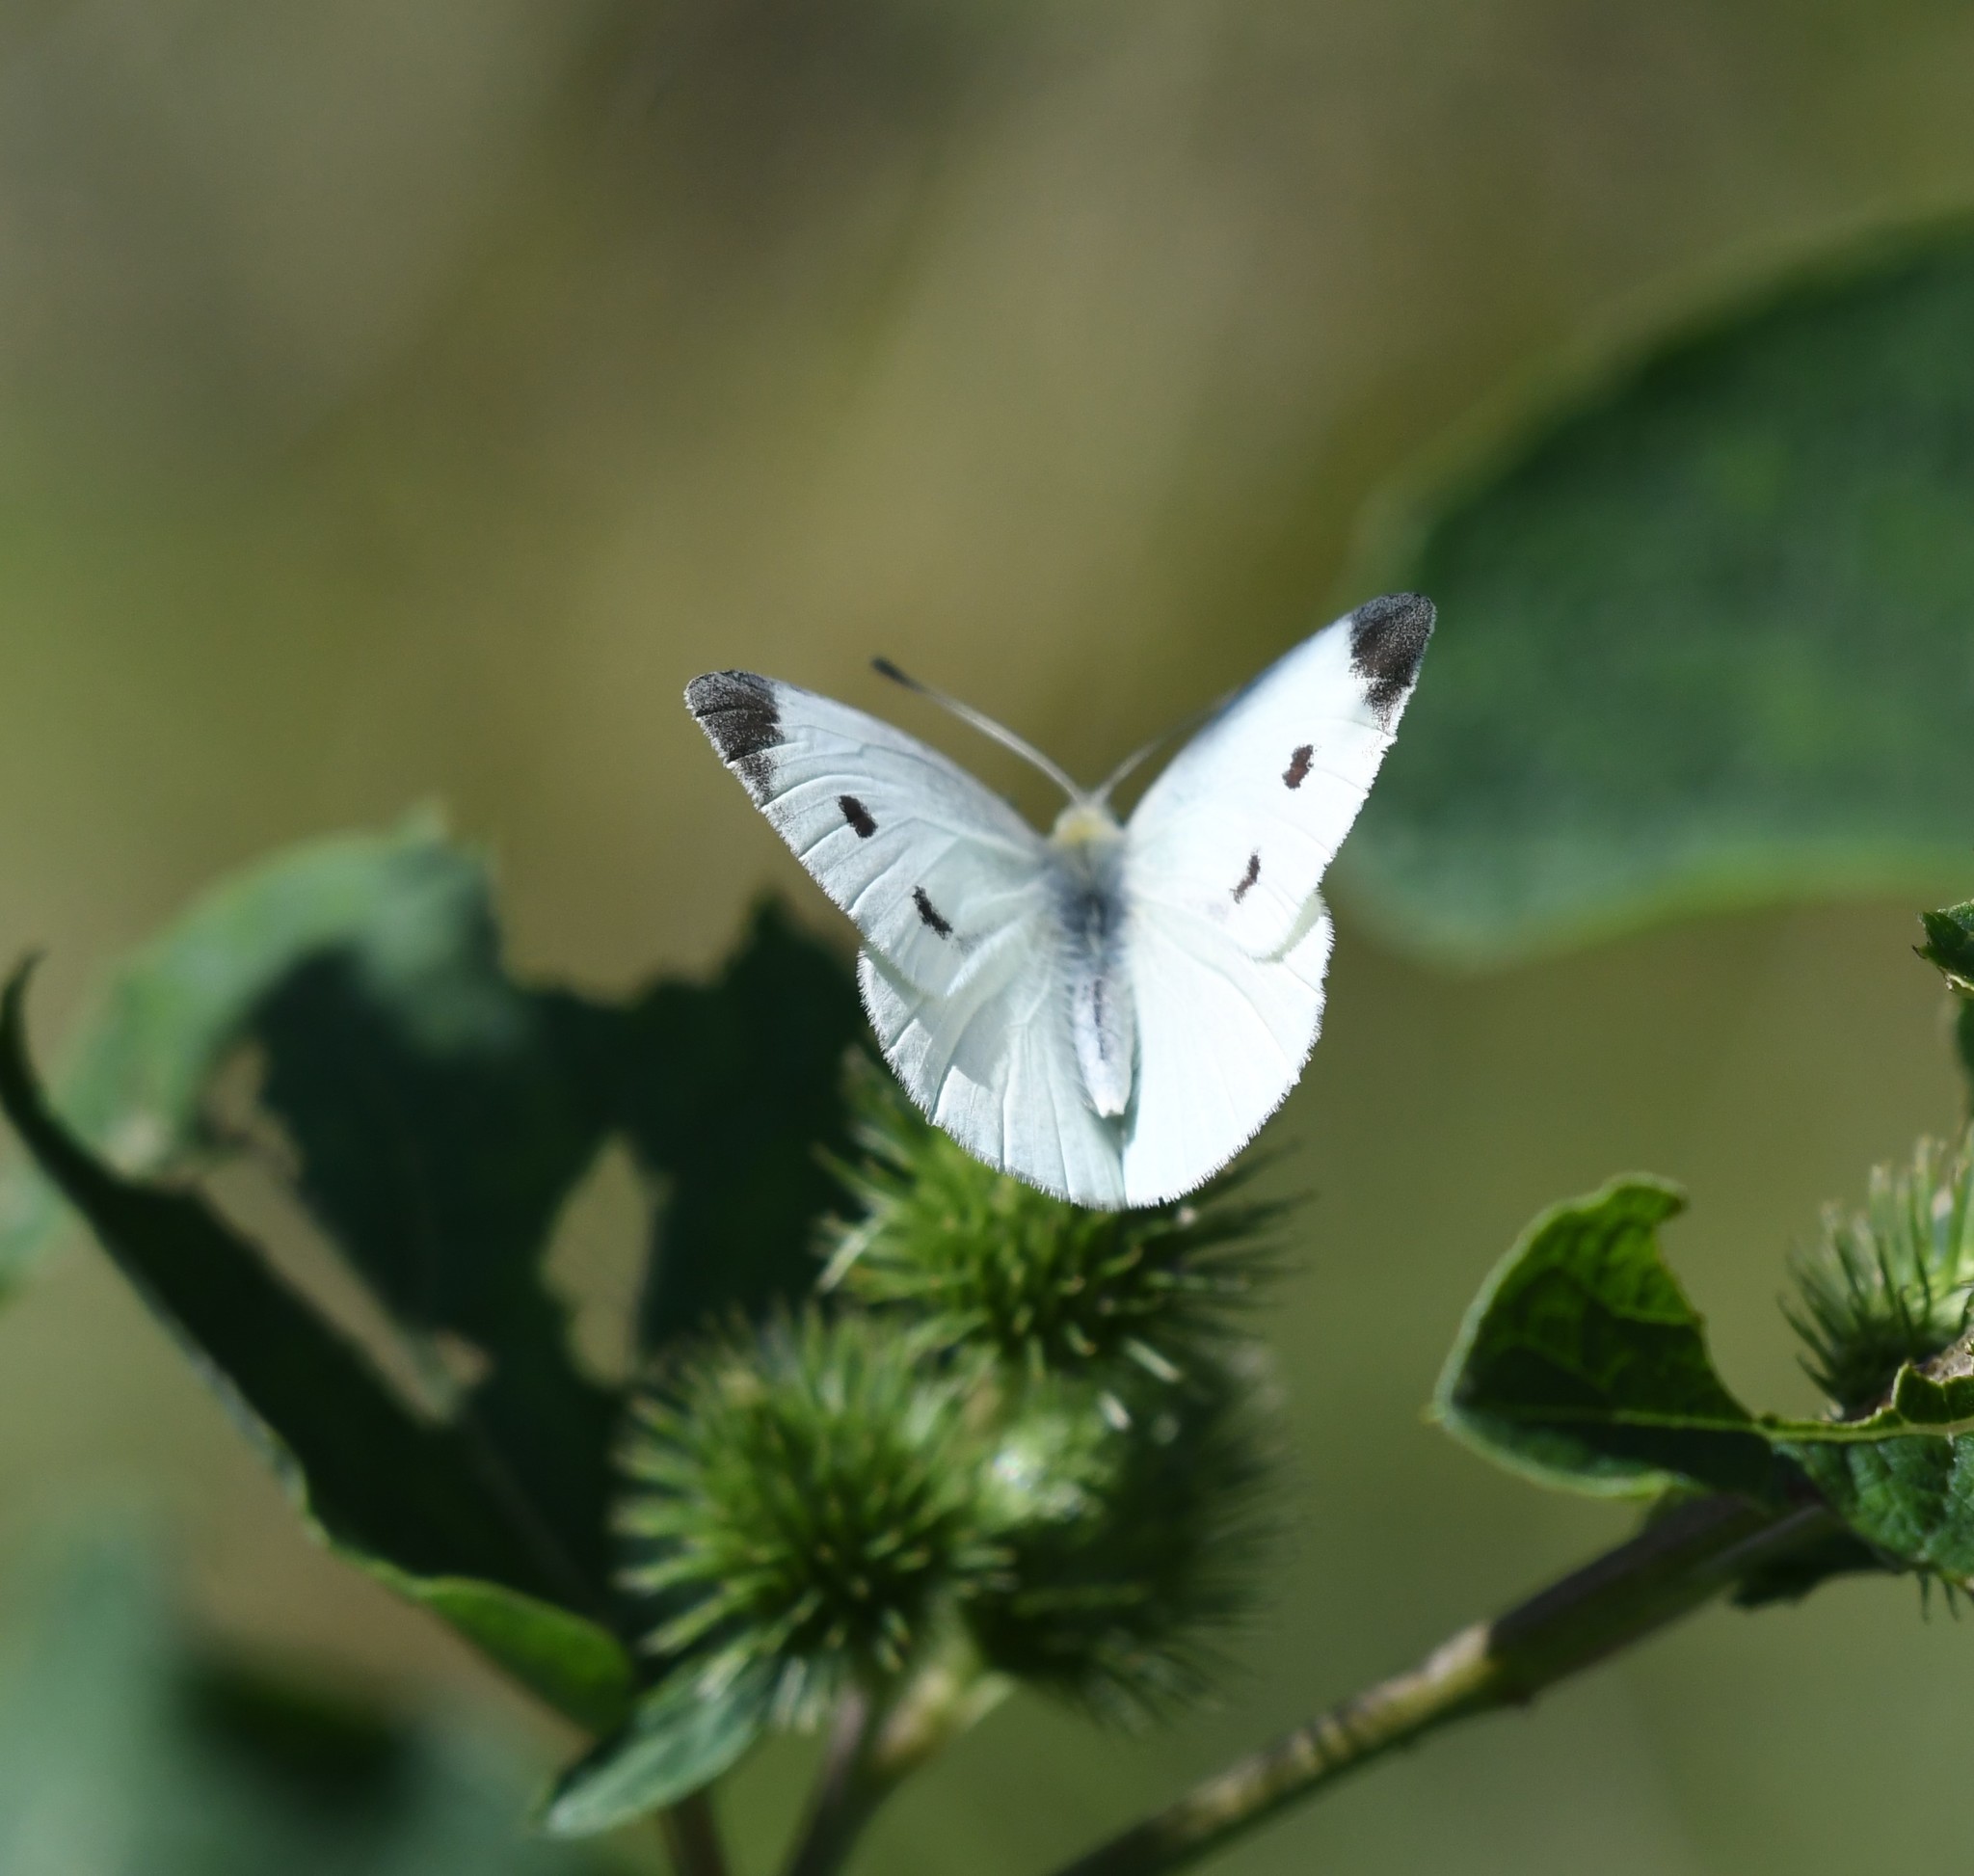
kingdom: Animalia
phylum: Arthropoda
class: Insecta
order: Lepidoptera
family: Pieridae
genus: Pieris
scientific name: Pieris rapae
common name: Small white
